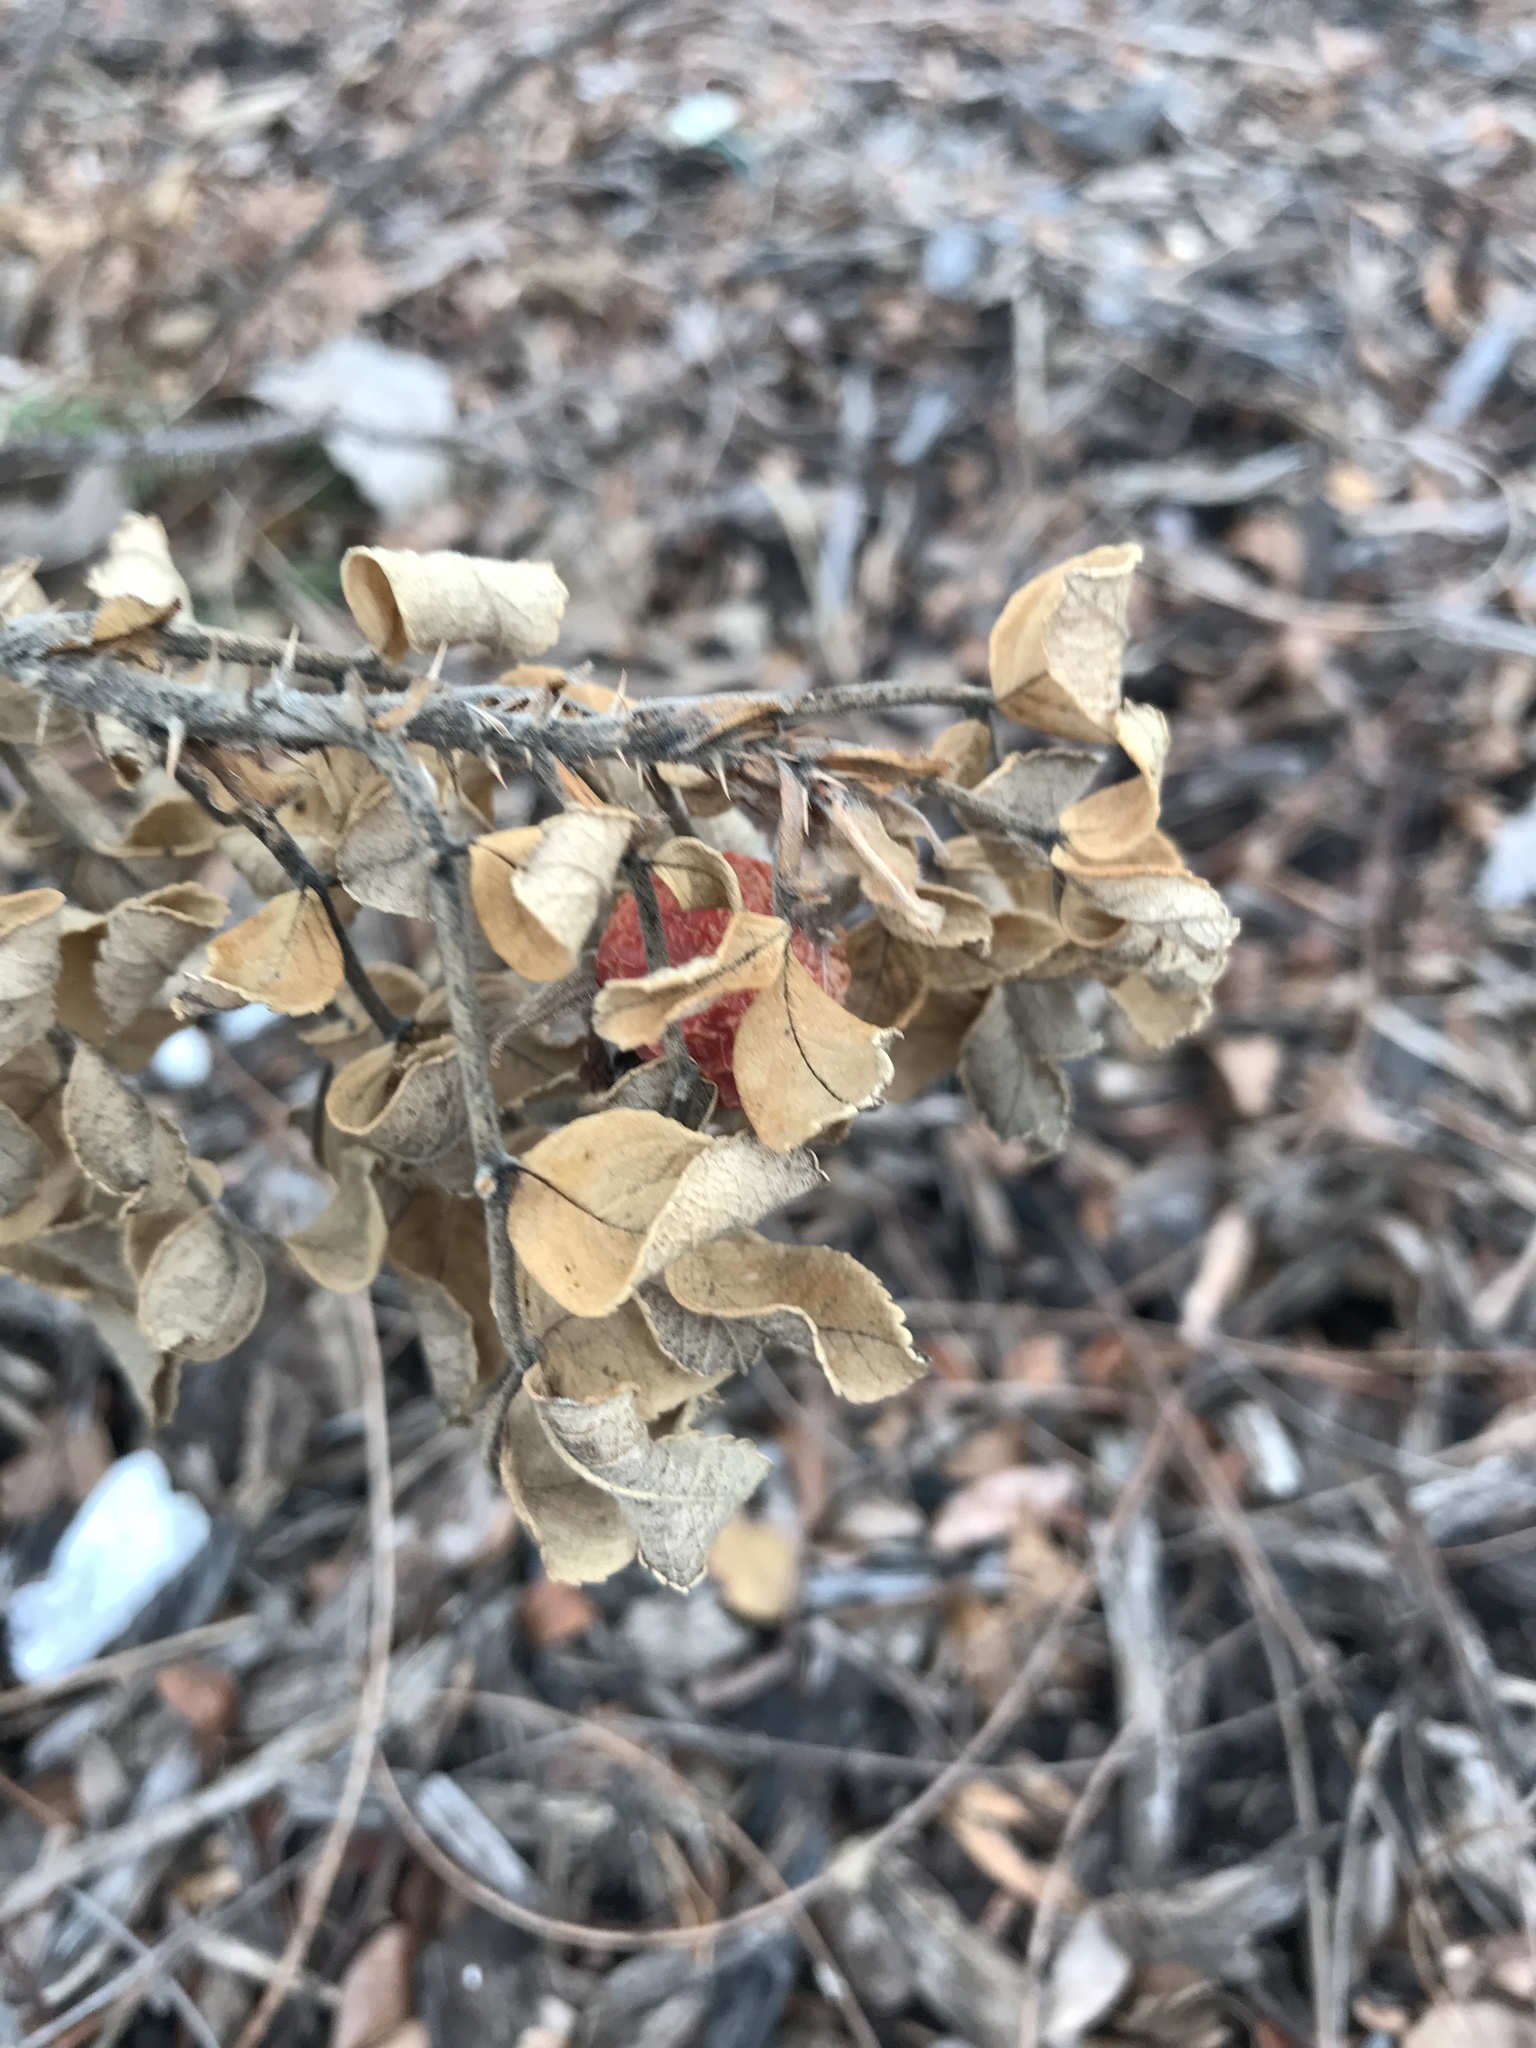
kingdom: Plantae
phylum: Tracheophyta
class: Magnoliopsida
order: Rosales
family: Rosaceae
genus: Rosa
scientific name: Rosa rugosa
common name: Japanese rose
